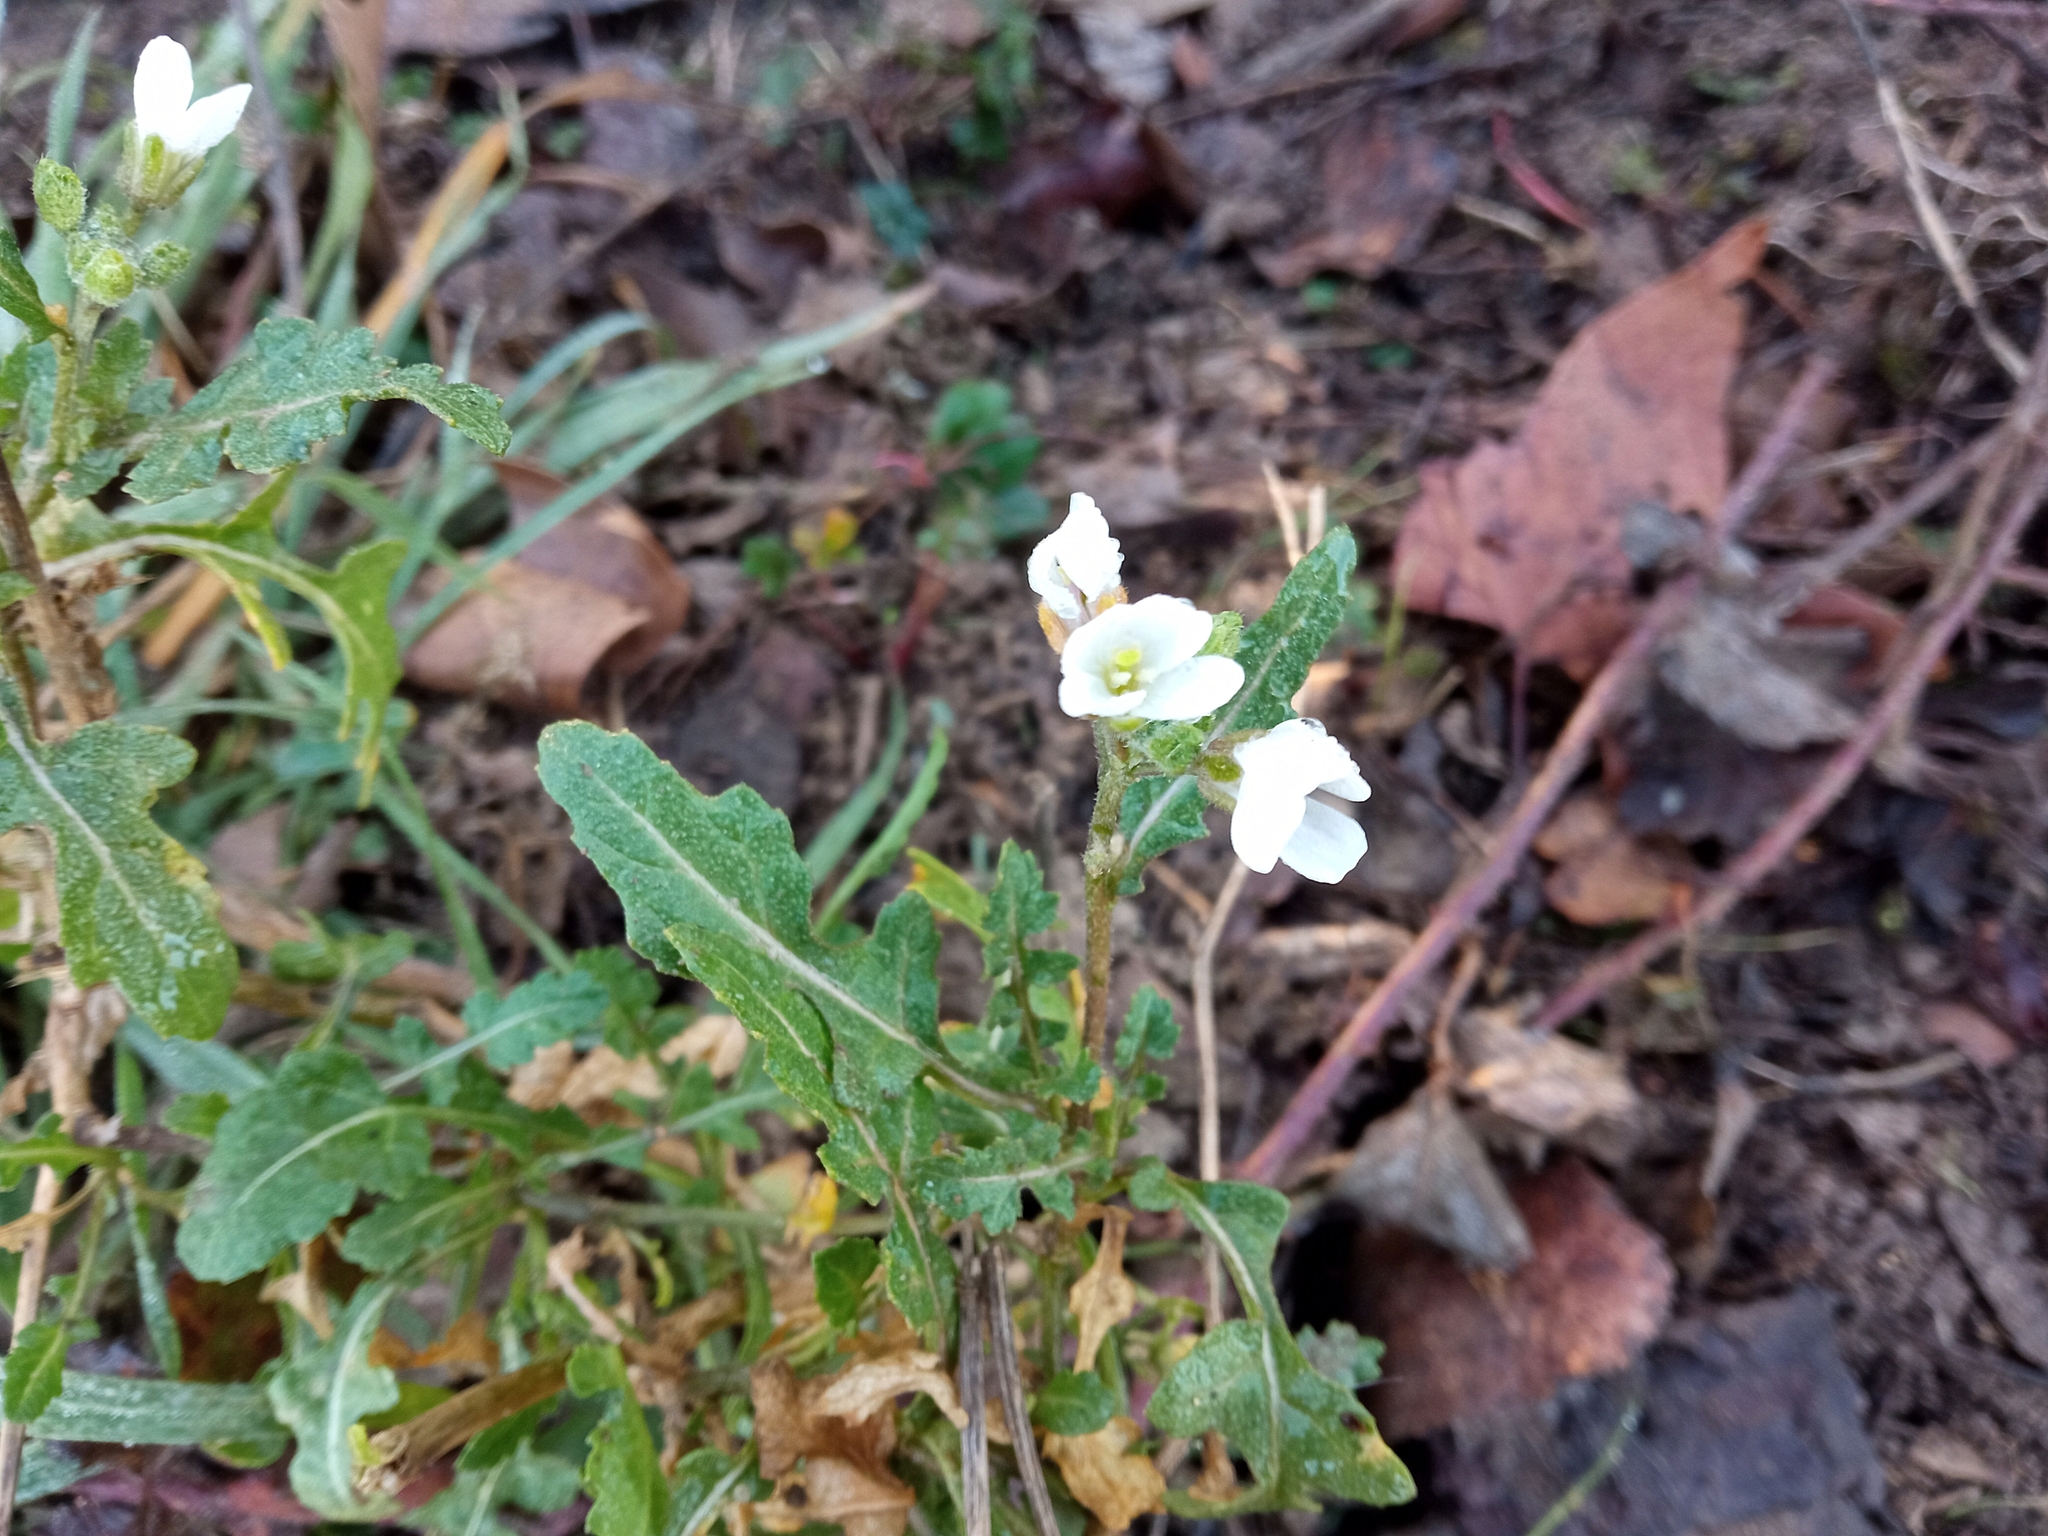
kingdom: Plantae
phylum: Tracheophyta
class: Magnoliopsida
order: Brassicales
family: Brassicaceae
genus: Diplotaxis
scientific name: Diplotaxis erucoides
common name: White rocket
